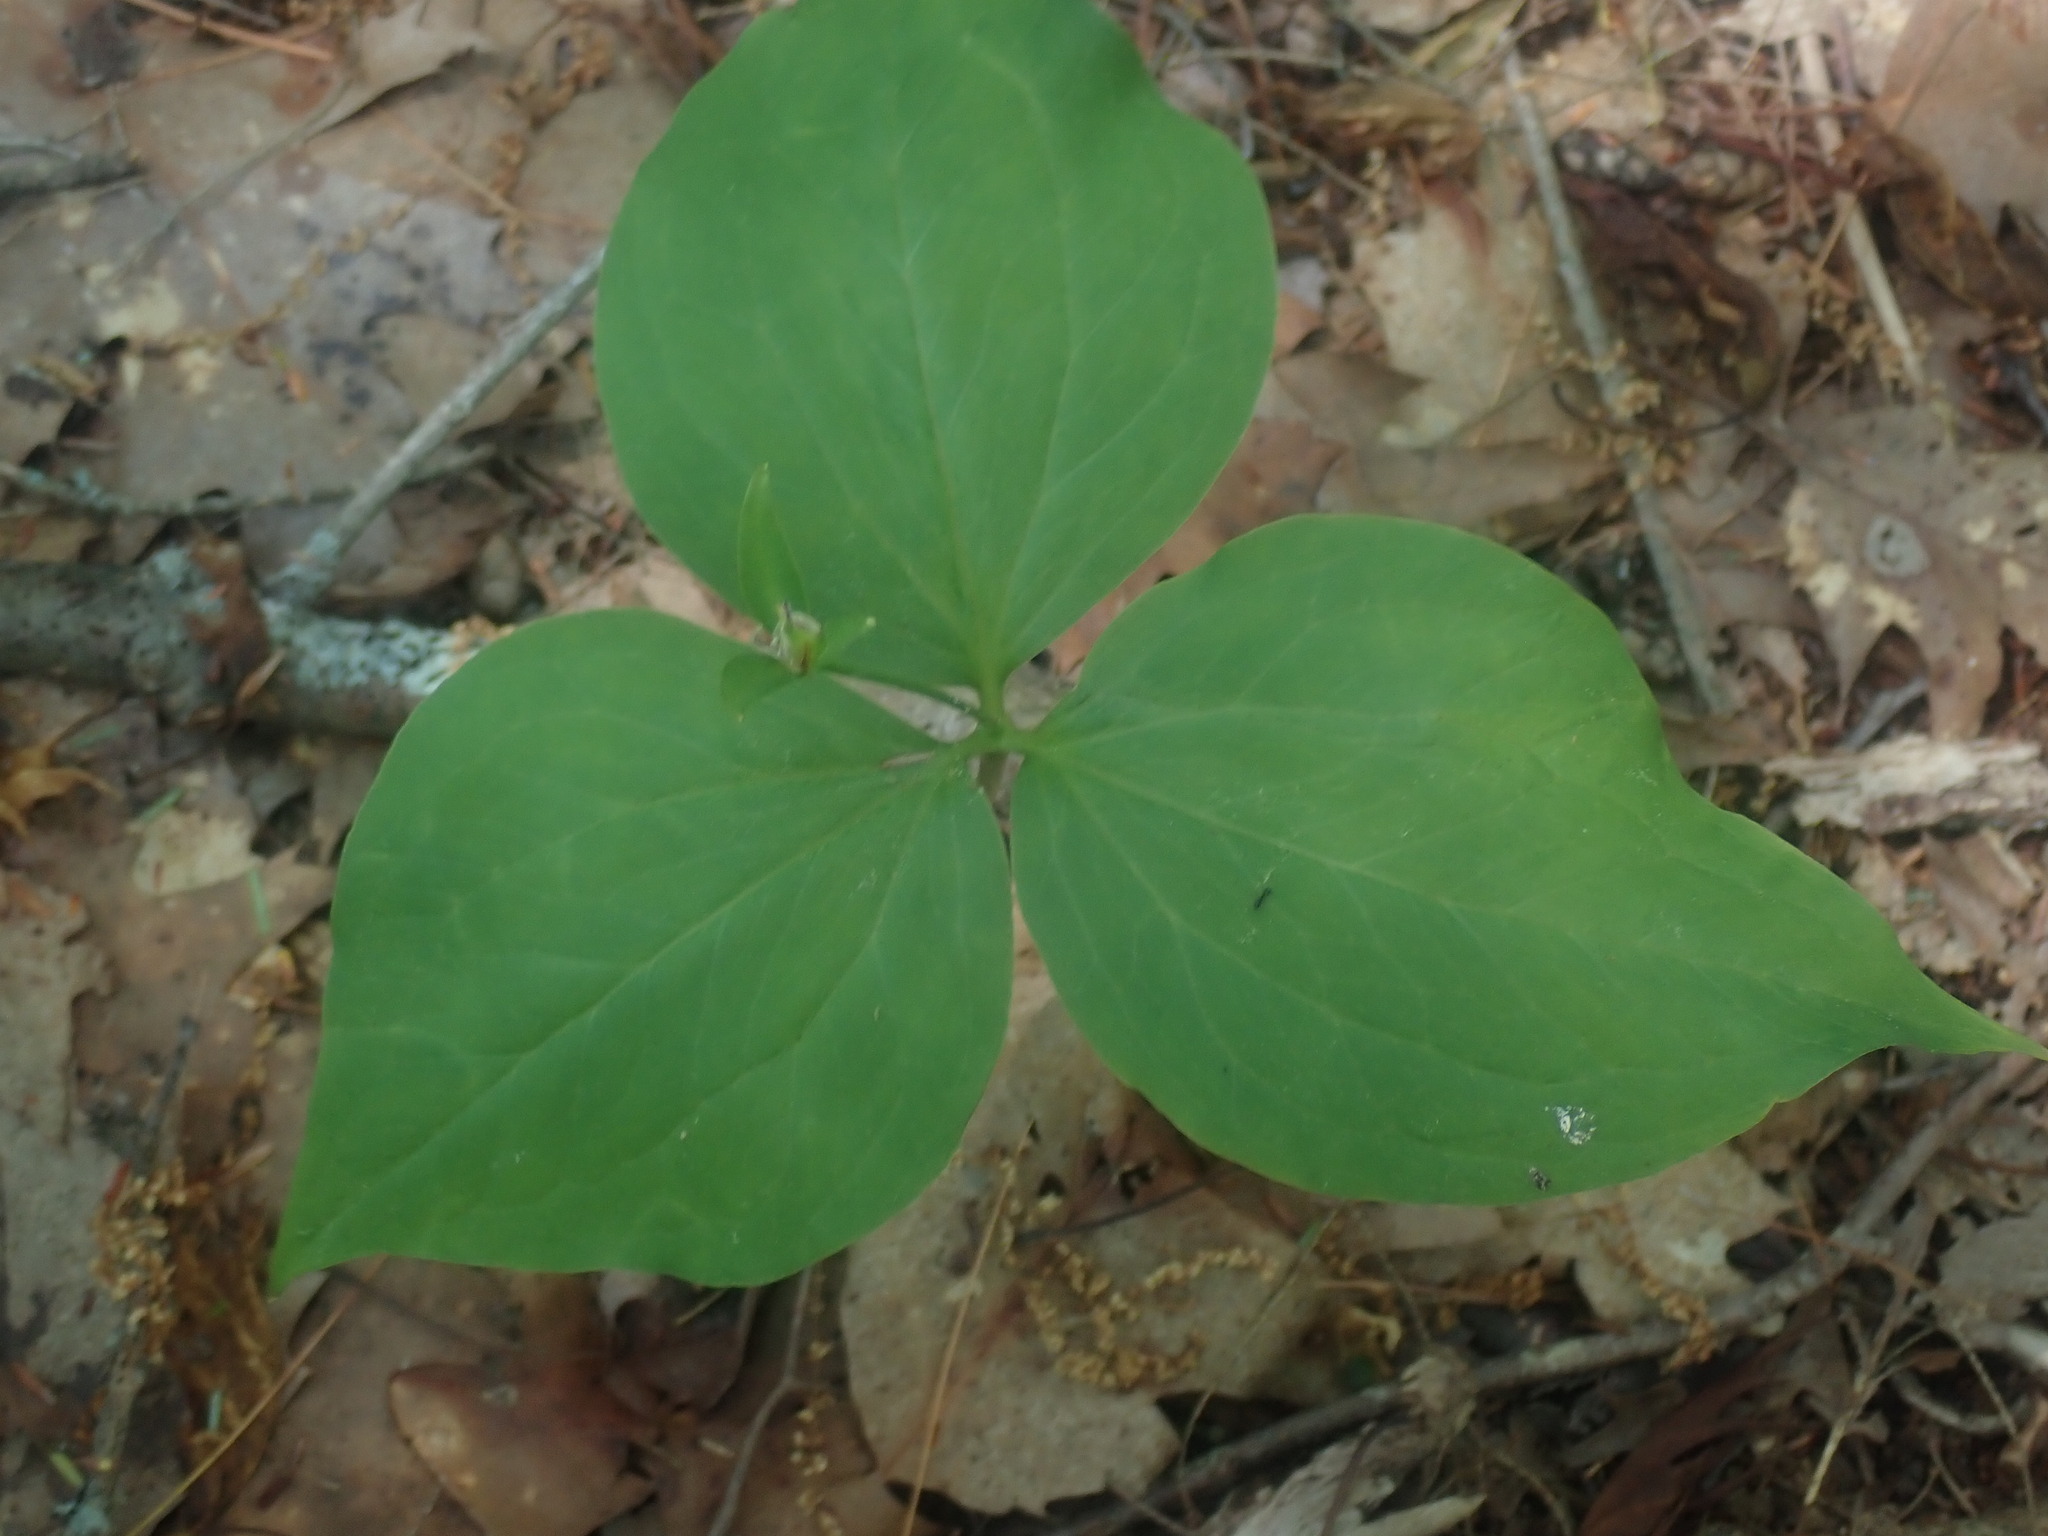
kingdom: Plantae
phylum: Tracheophyta
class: Liliopsida
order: Liliales
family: Melanthiaceae
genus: Trillium
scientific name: Trillium undulatum
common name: Paint trillium
